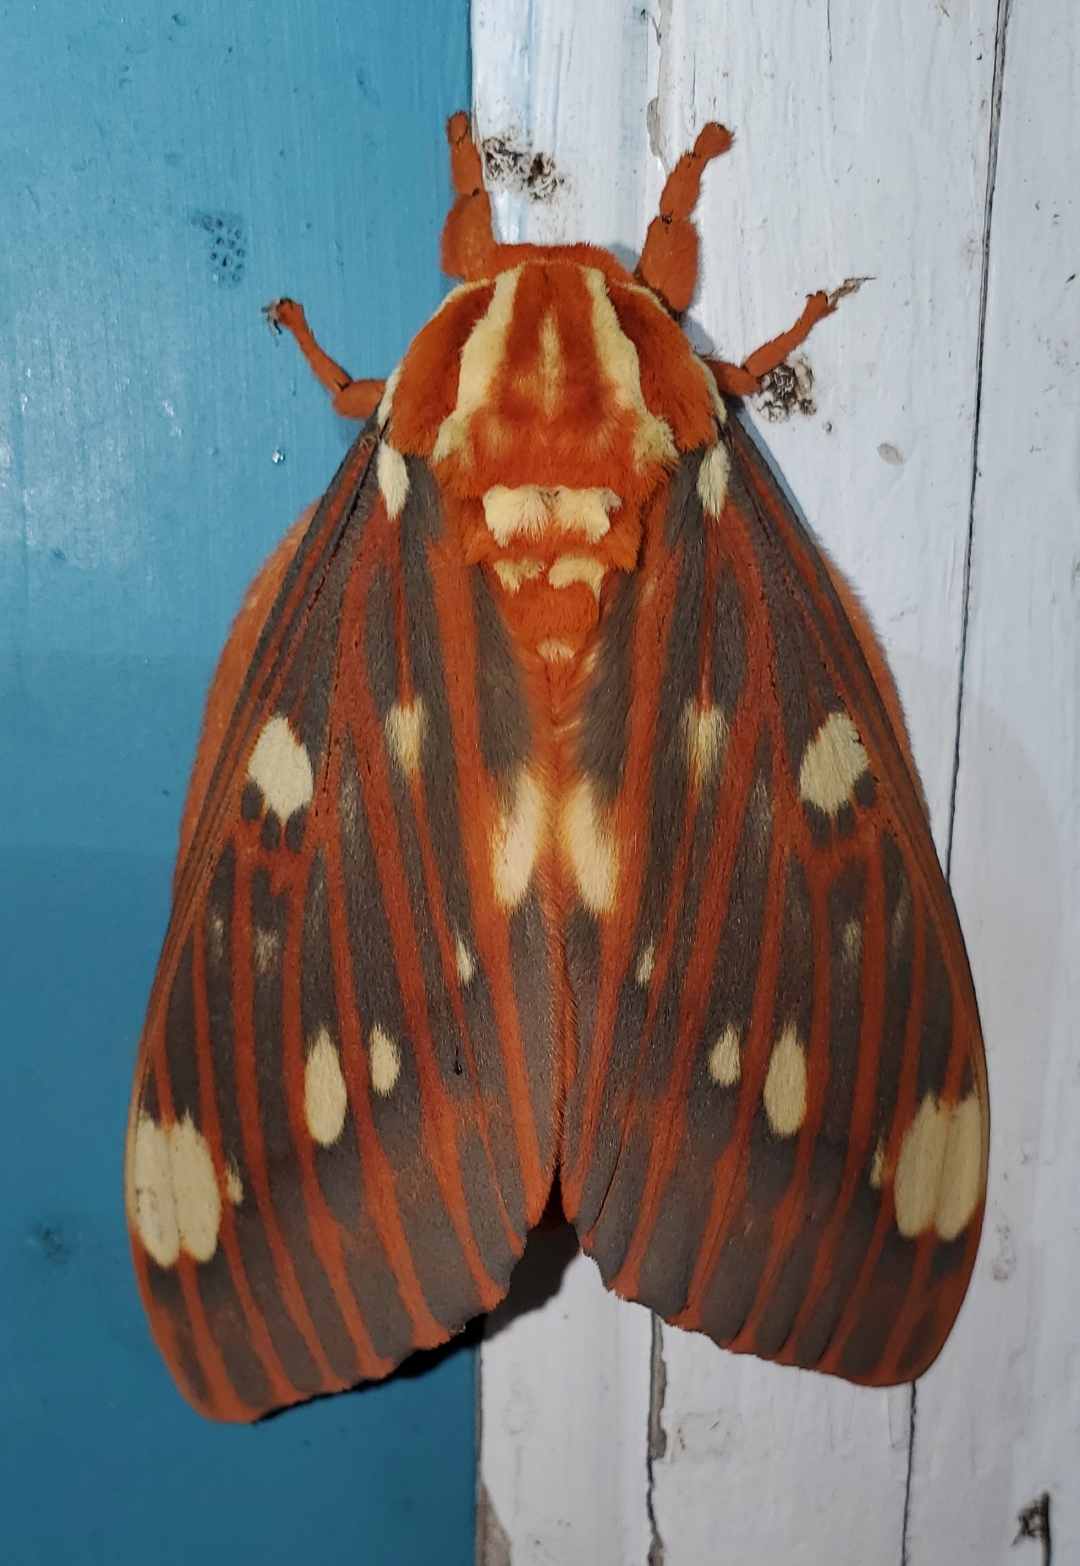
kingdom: Animalia
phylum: Arthropoda
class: Insecta
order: Lepidoptera
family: Saturniidae
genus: Citheronia
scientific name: Citheronia regalis
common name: Hickory horned devil
